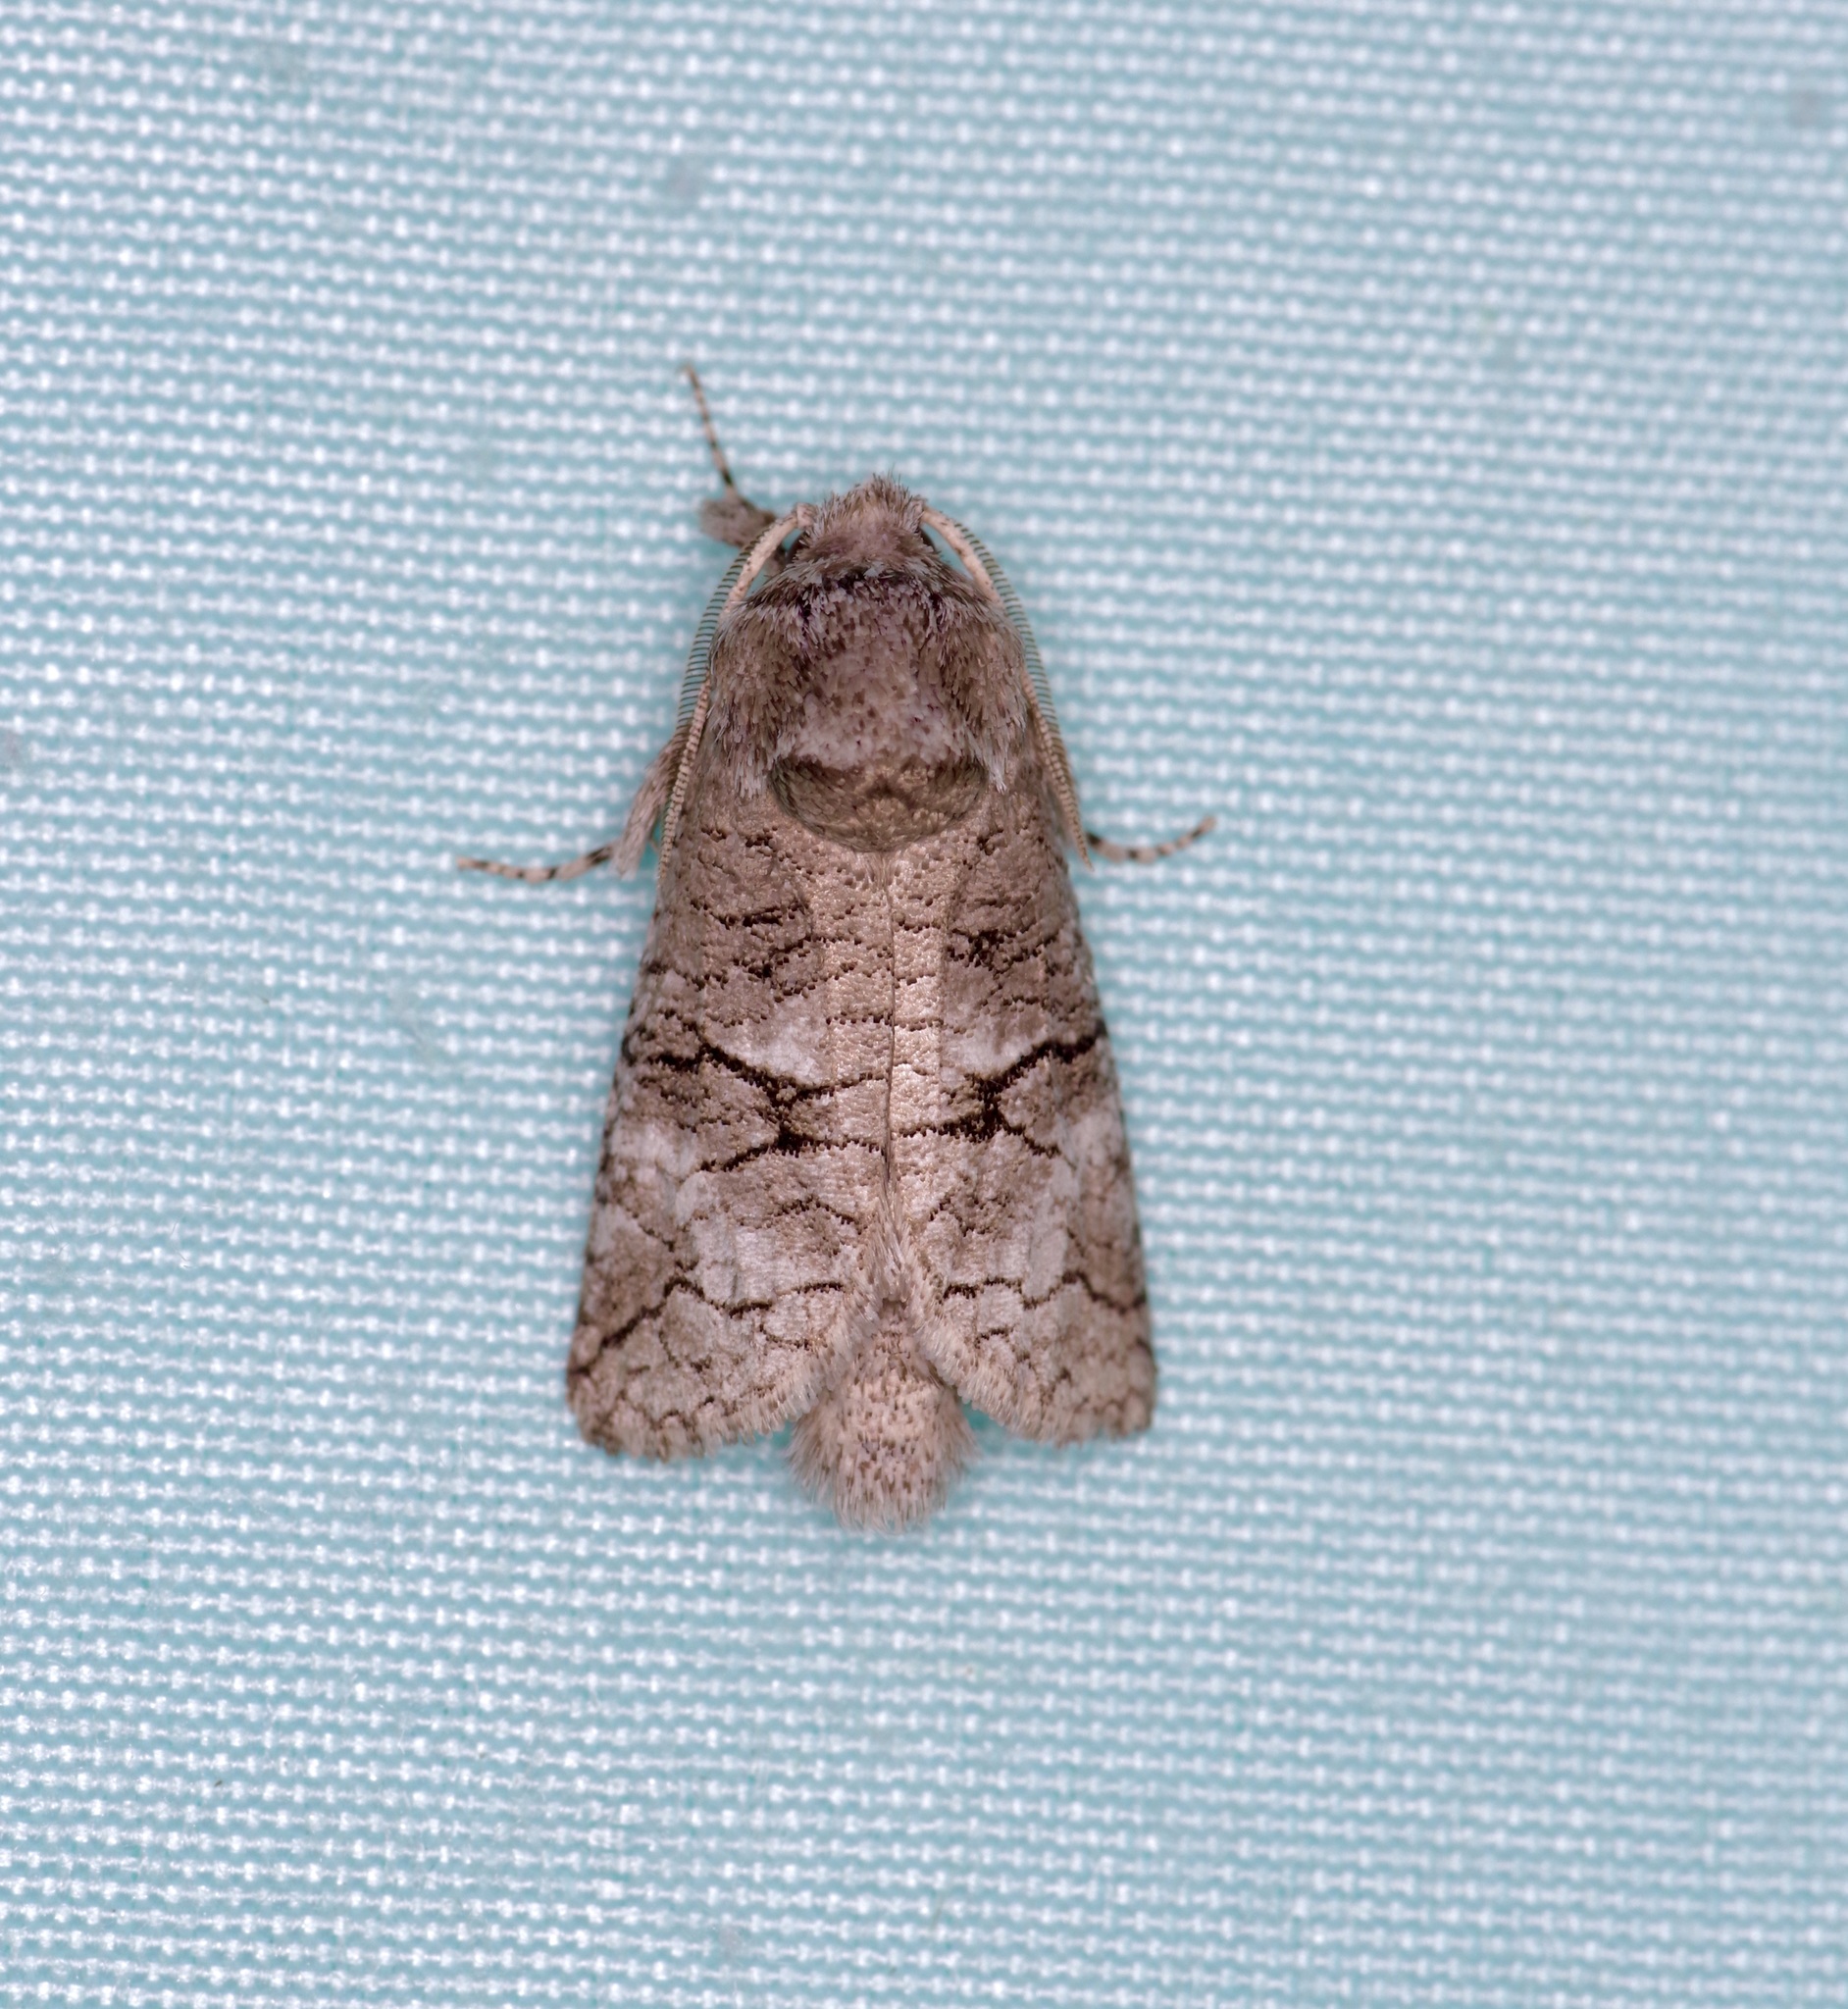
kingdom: Animalia
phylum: Arthropoda
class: Insecta
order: Lepidoptera
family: Cossidae
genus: Fania
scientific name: Fania nanus
